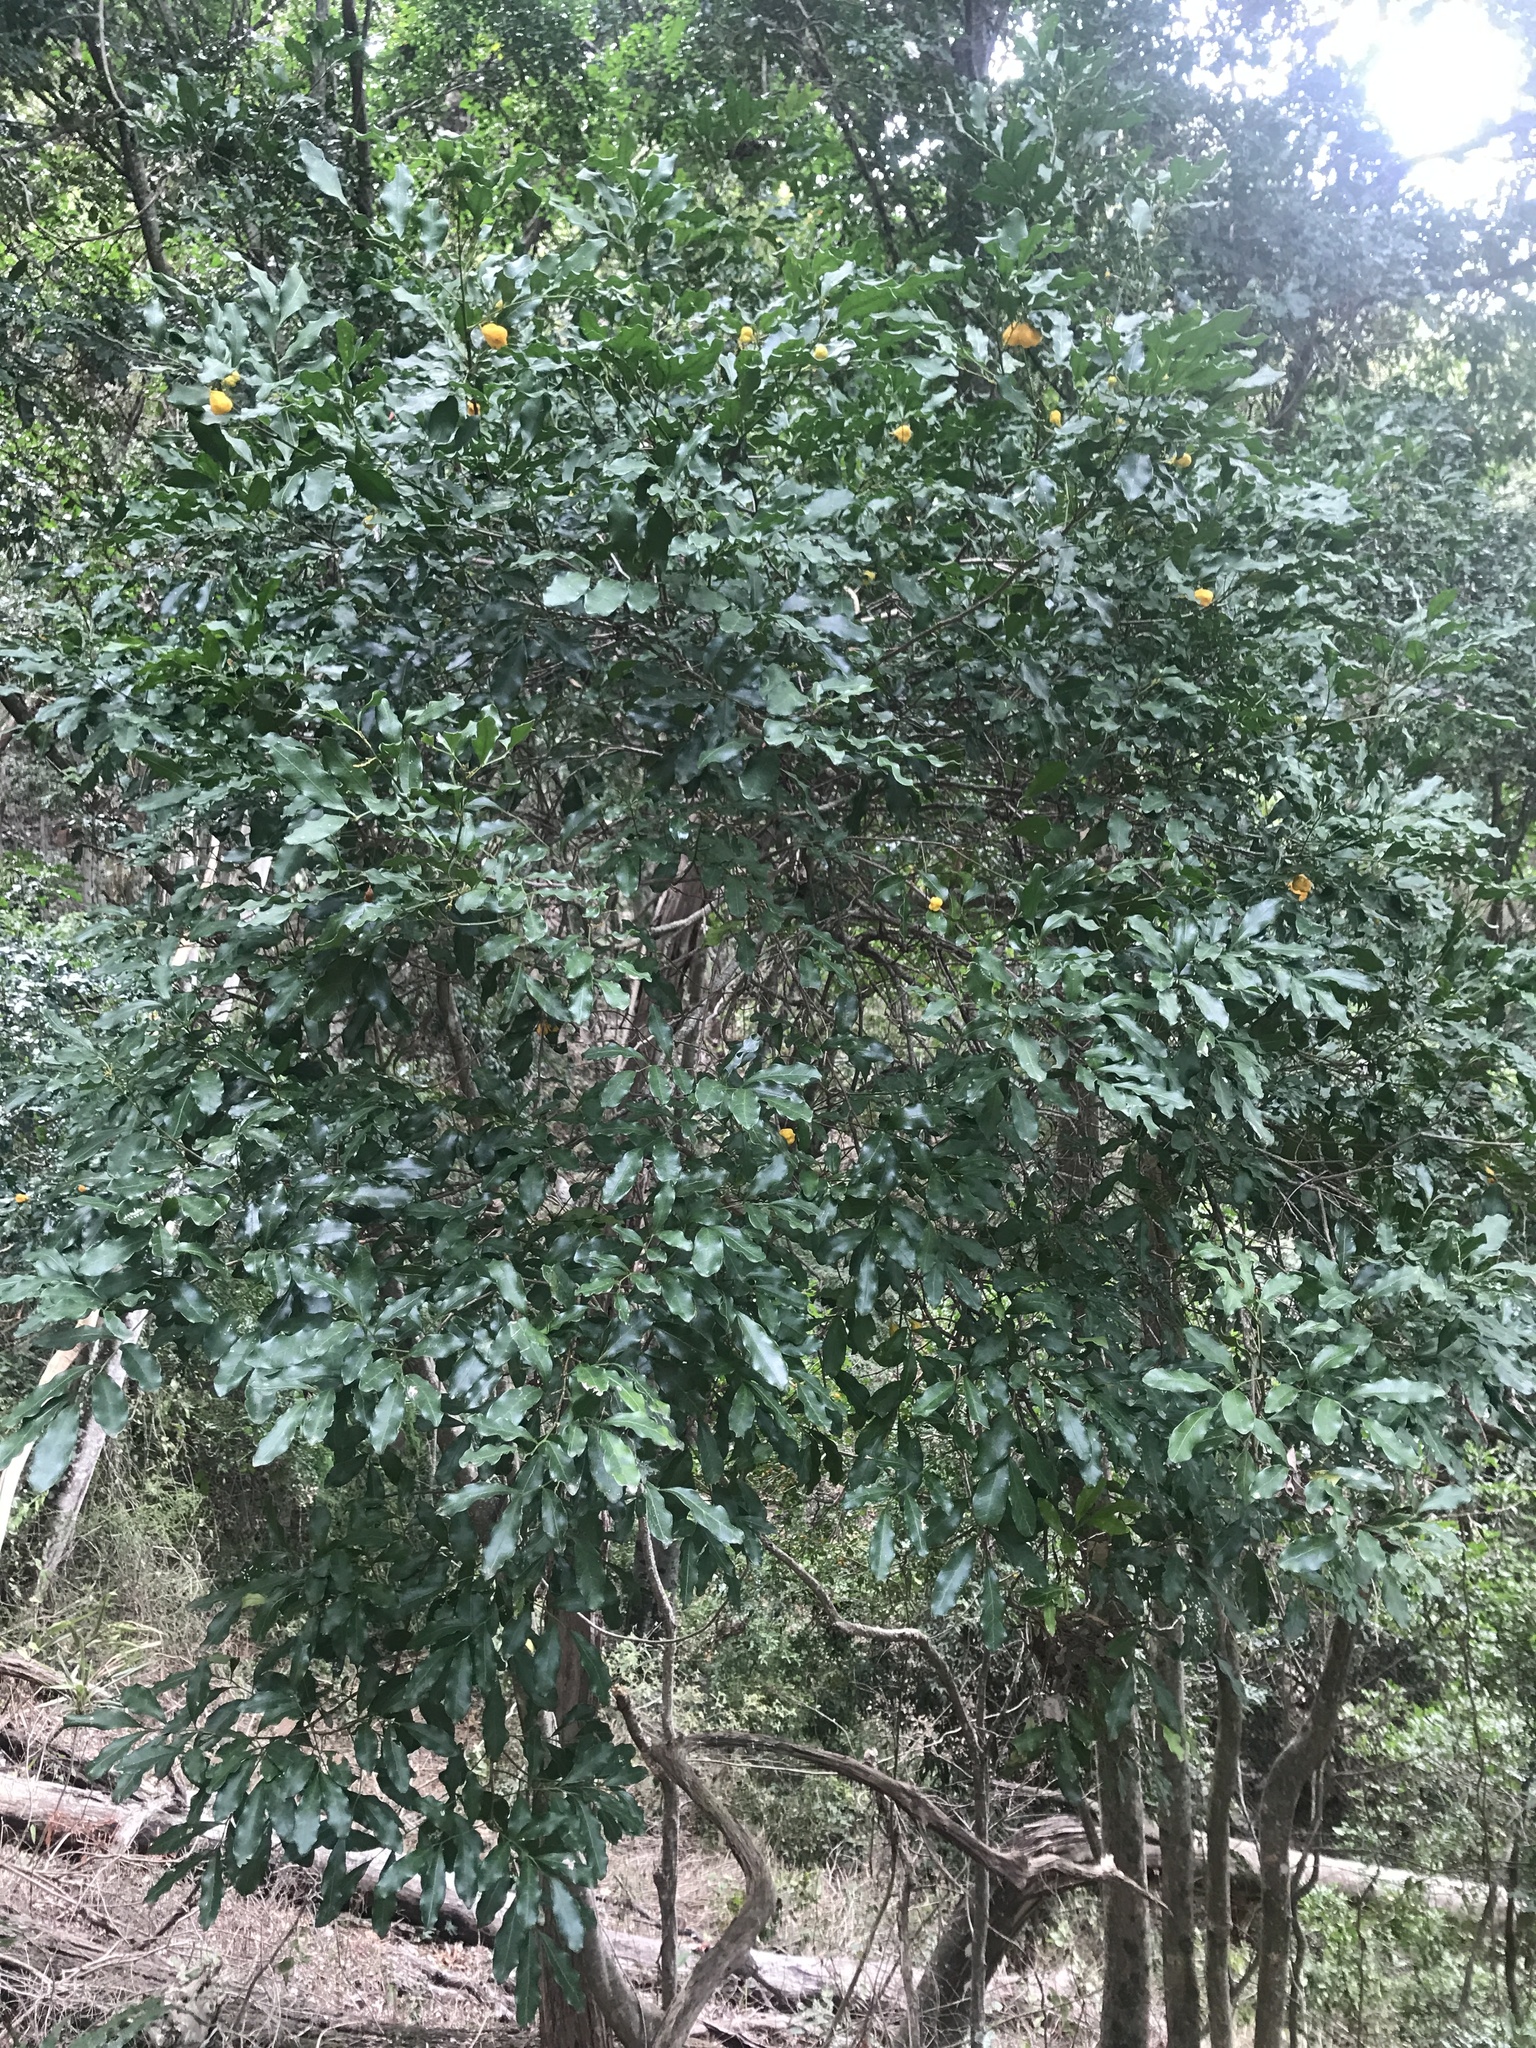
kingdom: Plantae
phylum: Tracheophyta
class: Magnoliopsida
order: Sapindales
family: Sapindaceae
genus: Toechima
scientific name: Toechima tenax
